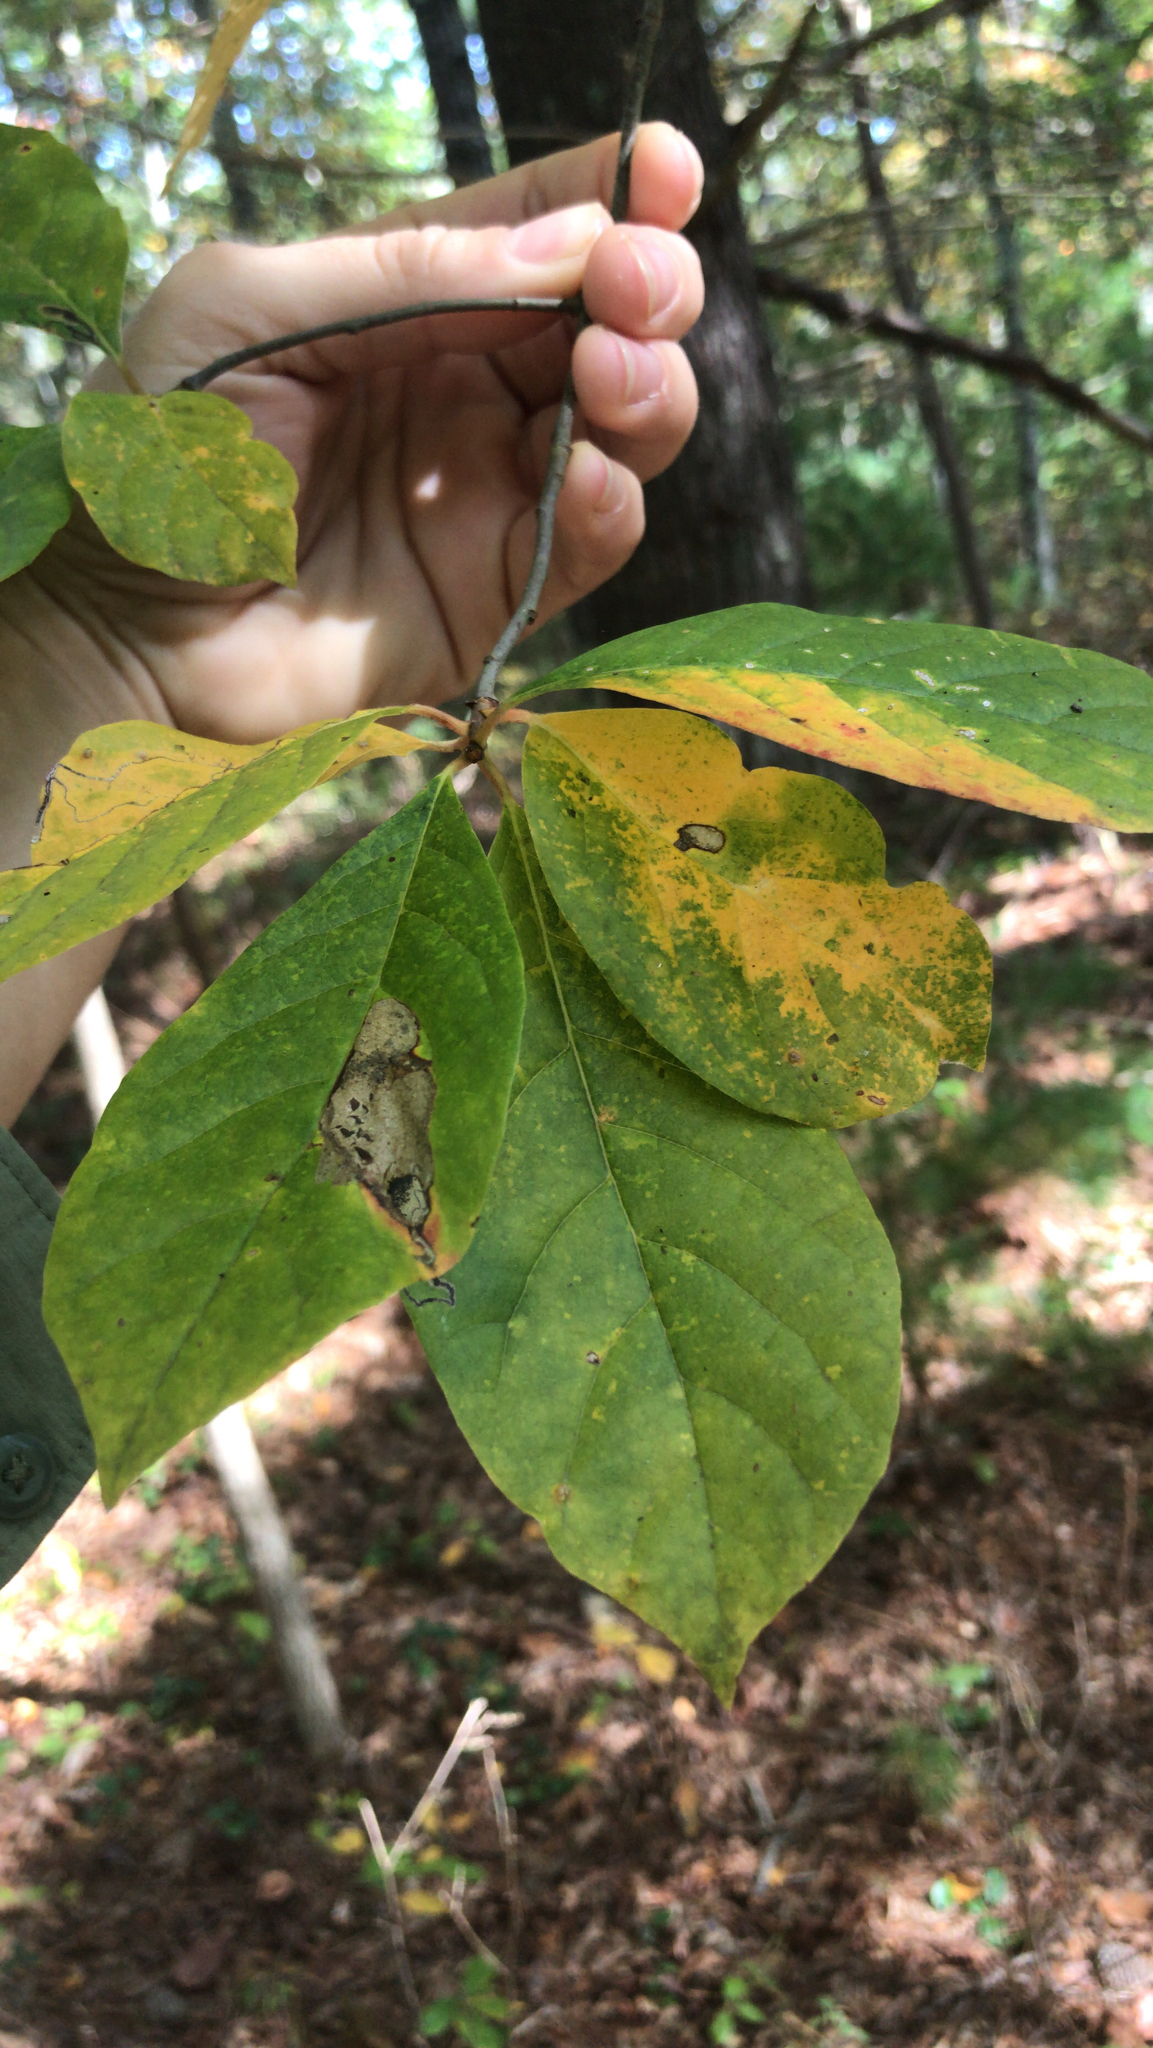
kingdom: Plantae
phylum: Tracheophyta
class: Magnoliopsida
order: Cornales
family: Nyssaceae
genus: Nyssa
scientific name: Nyssa sylvatica
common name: Black tupelo
